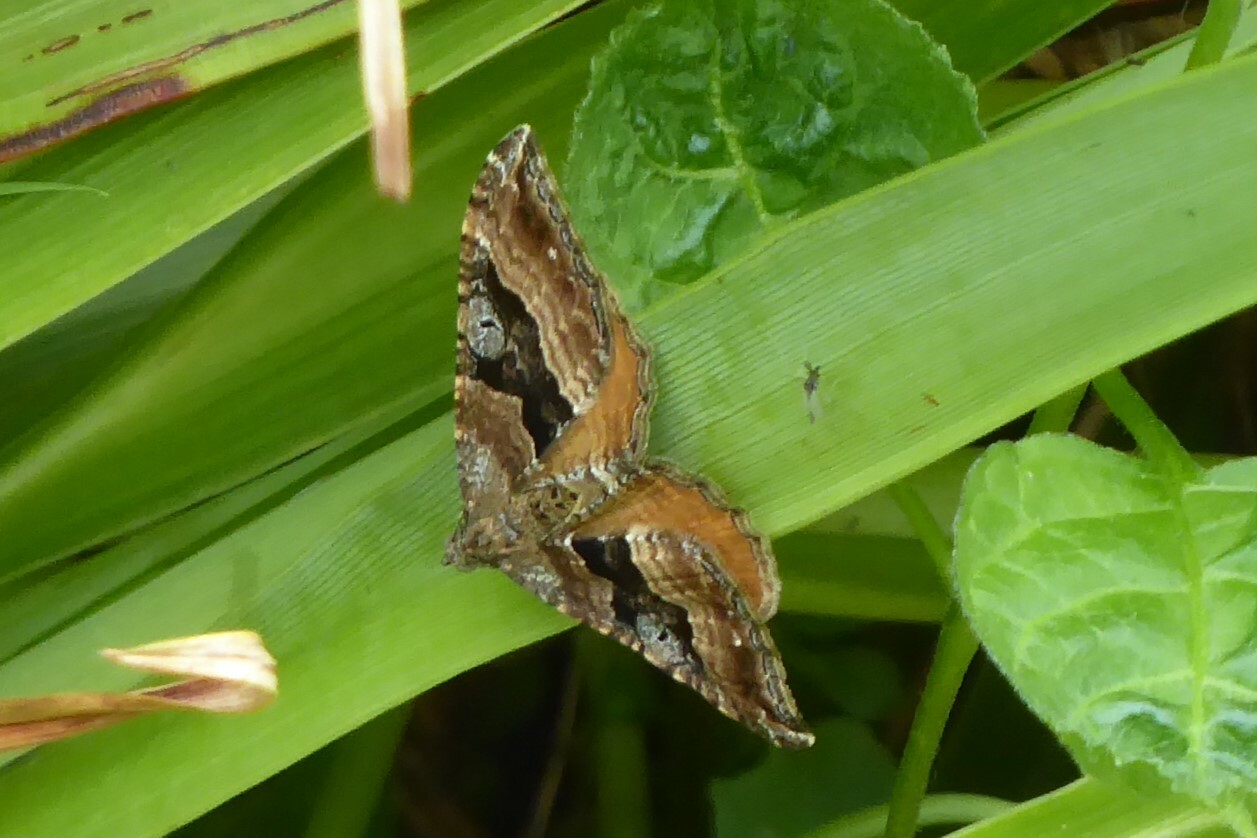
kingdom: Animalia
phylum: Arthropoda
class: Insecta
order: Lepidoptera
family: Geometridae
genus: Hydriomena
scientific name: Hydriomena deltoidata
